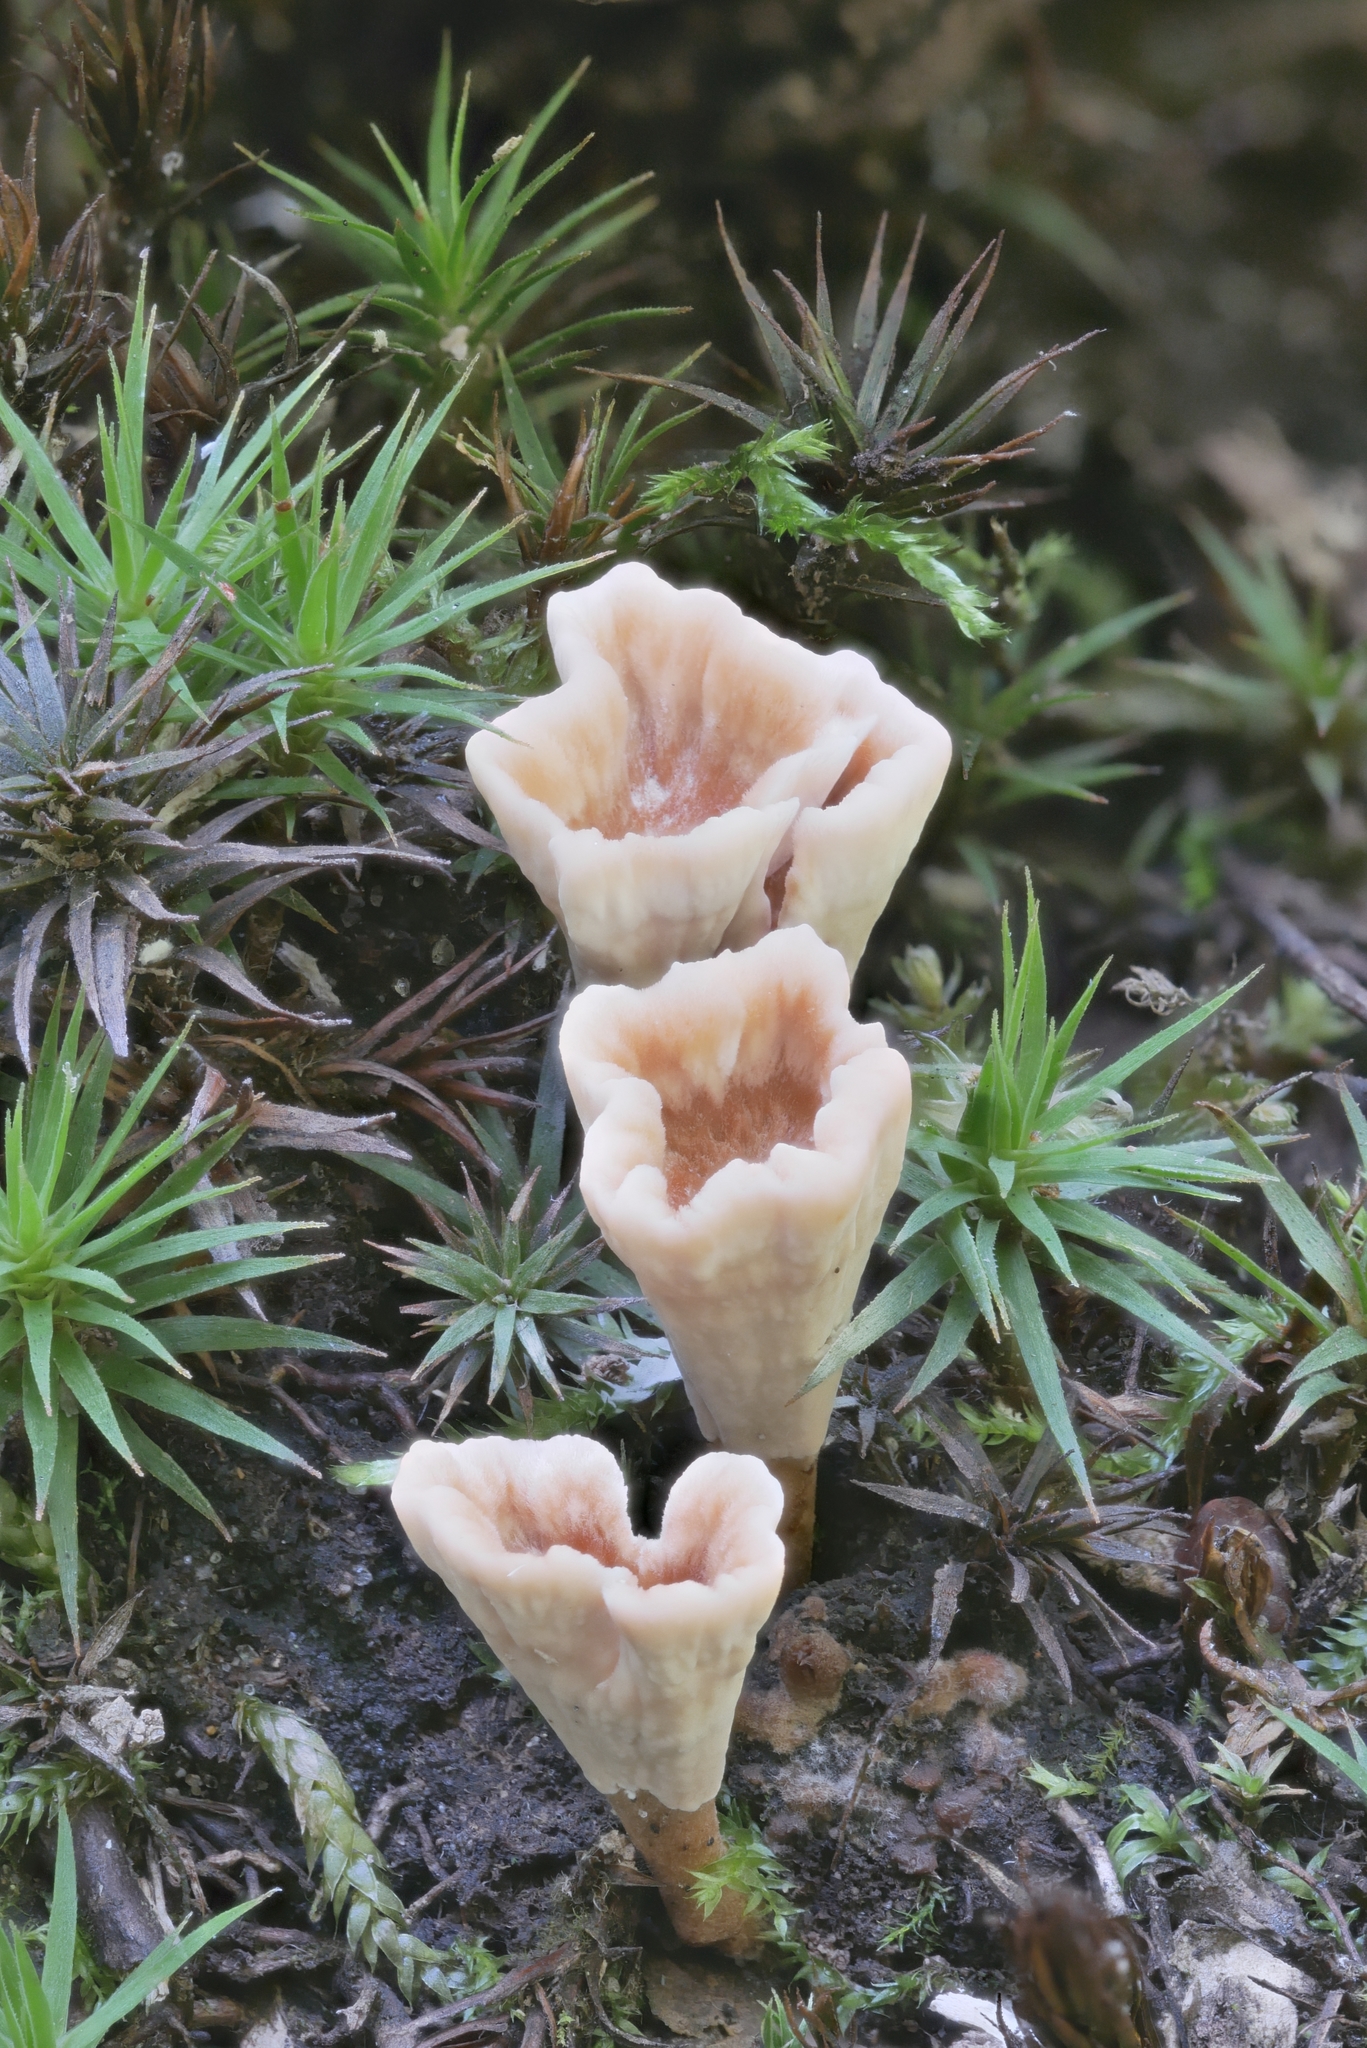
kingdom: Fungi
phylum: Basidiomycota
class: Agaricomycetes
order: Stereopsidales
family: Stereopsidaceae
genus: Stereopsis
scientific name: Stereopsis hiscens
